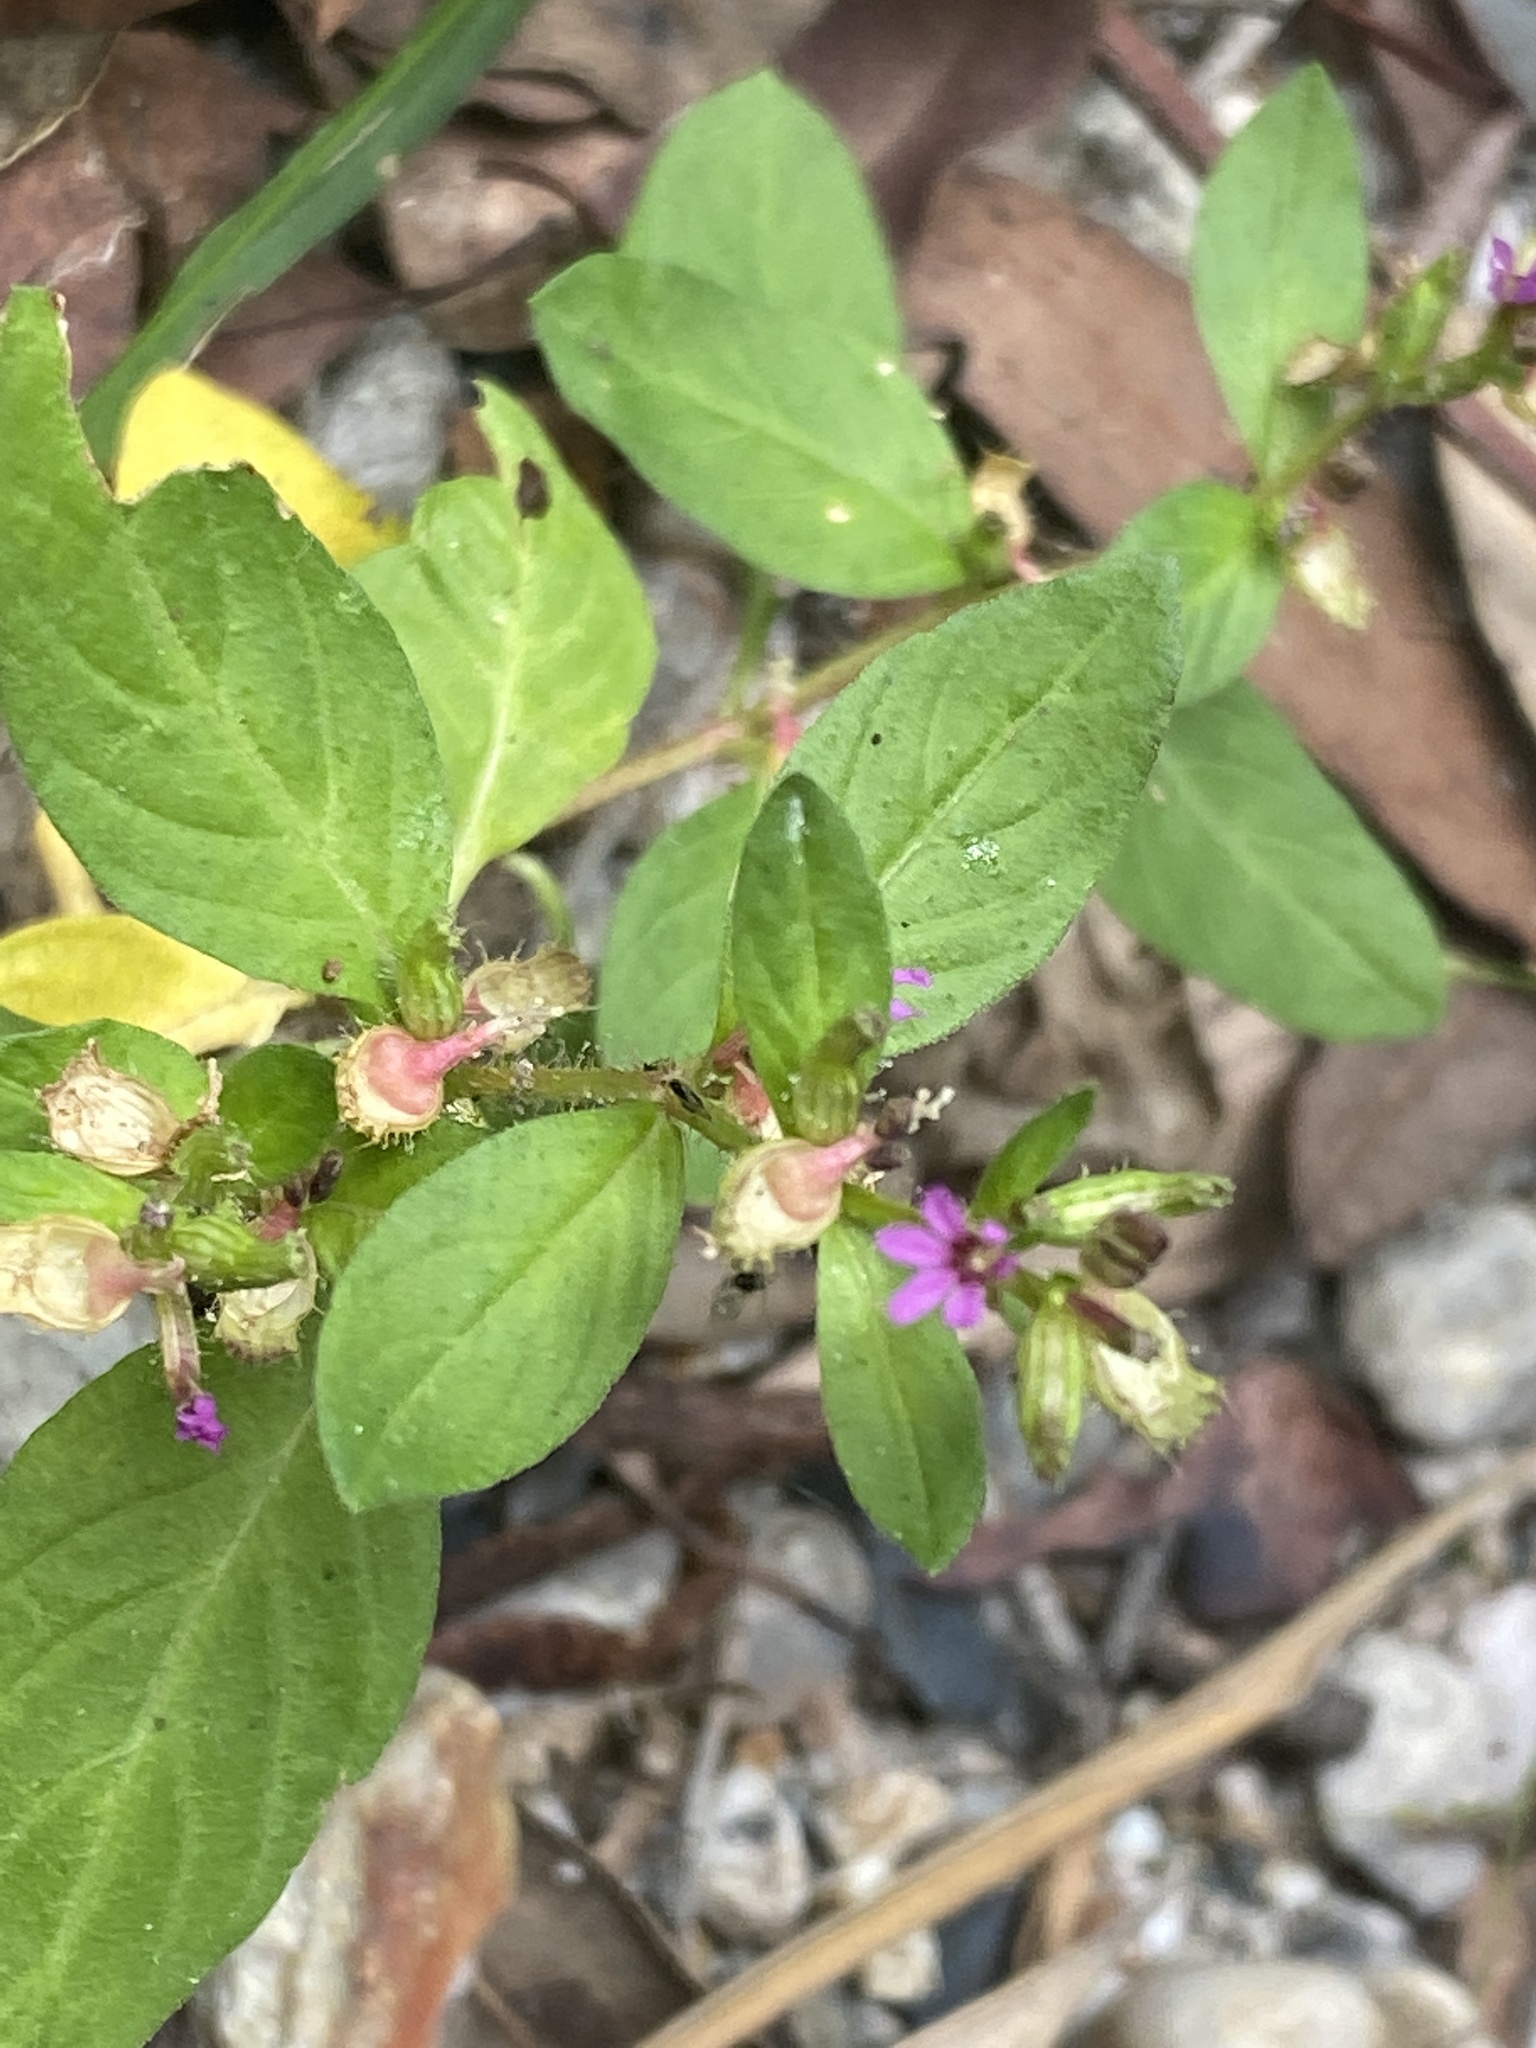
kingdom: Plantae
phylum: Tracheophyta
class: Magnoliopsida
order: Myrtales
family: Lythraceae
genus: Cuphea
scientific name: Cuphea carthagenensis
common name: Colombian waxweed
